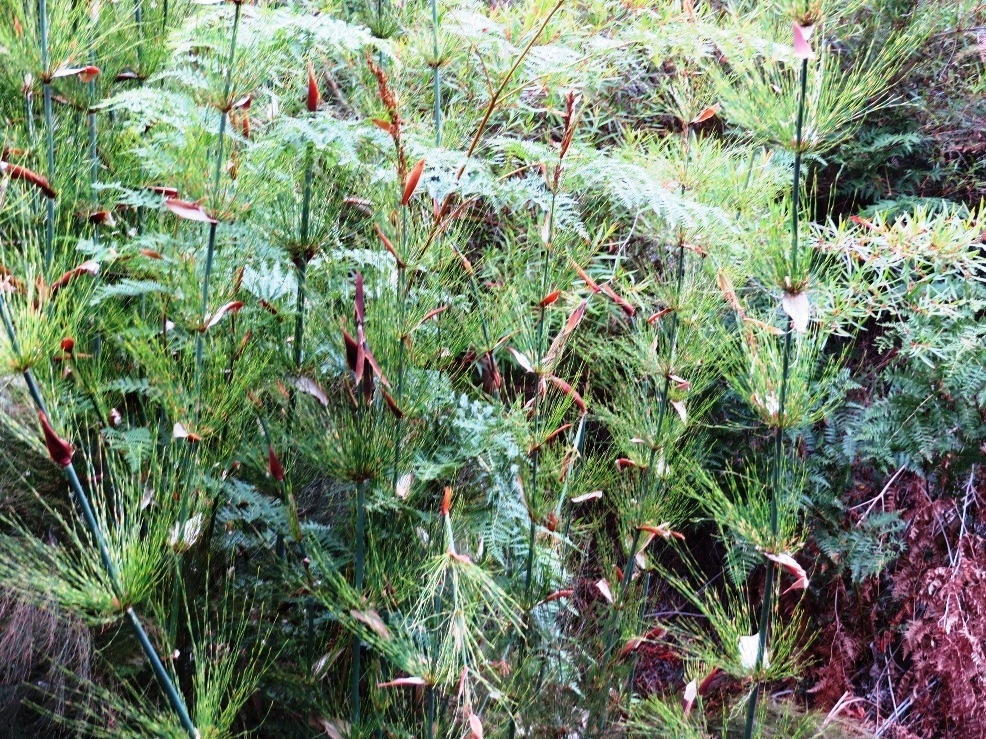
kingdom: Plantae
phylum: Tracheophyta
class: Liliopsida
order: Poales
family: Restionaceae
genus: Elegia
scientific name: Elegia capensis
